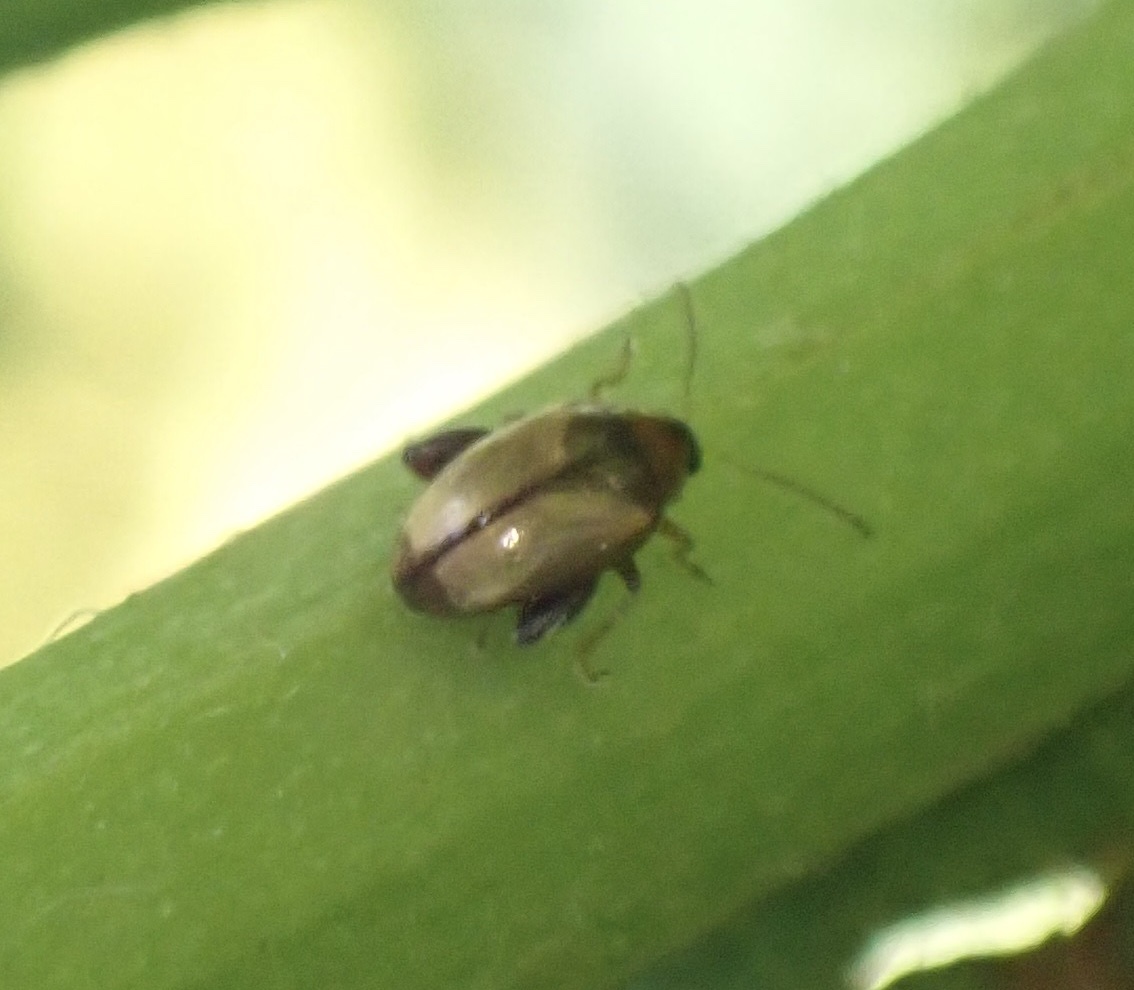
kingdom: Animalia
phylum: Arthropoda
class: Insecta
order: Coleoptera
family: Chrysomelidae
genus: Psylliodes
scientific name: Psylliodes affinis
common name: Potato flea beetle
